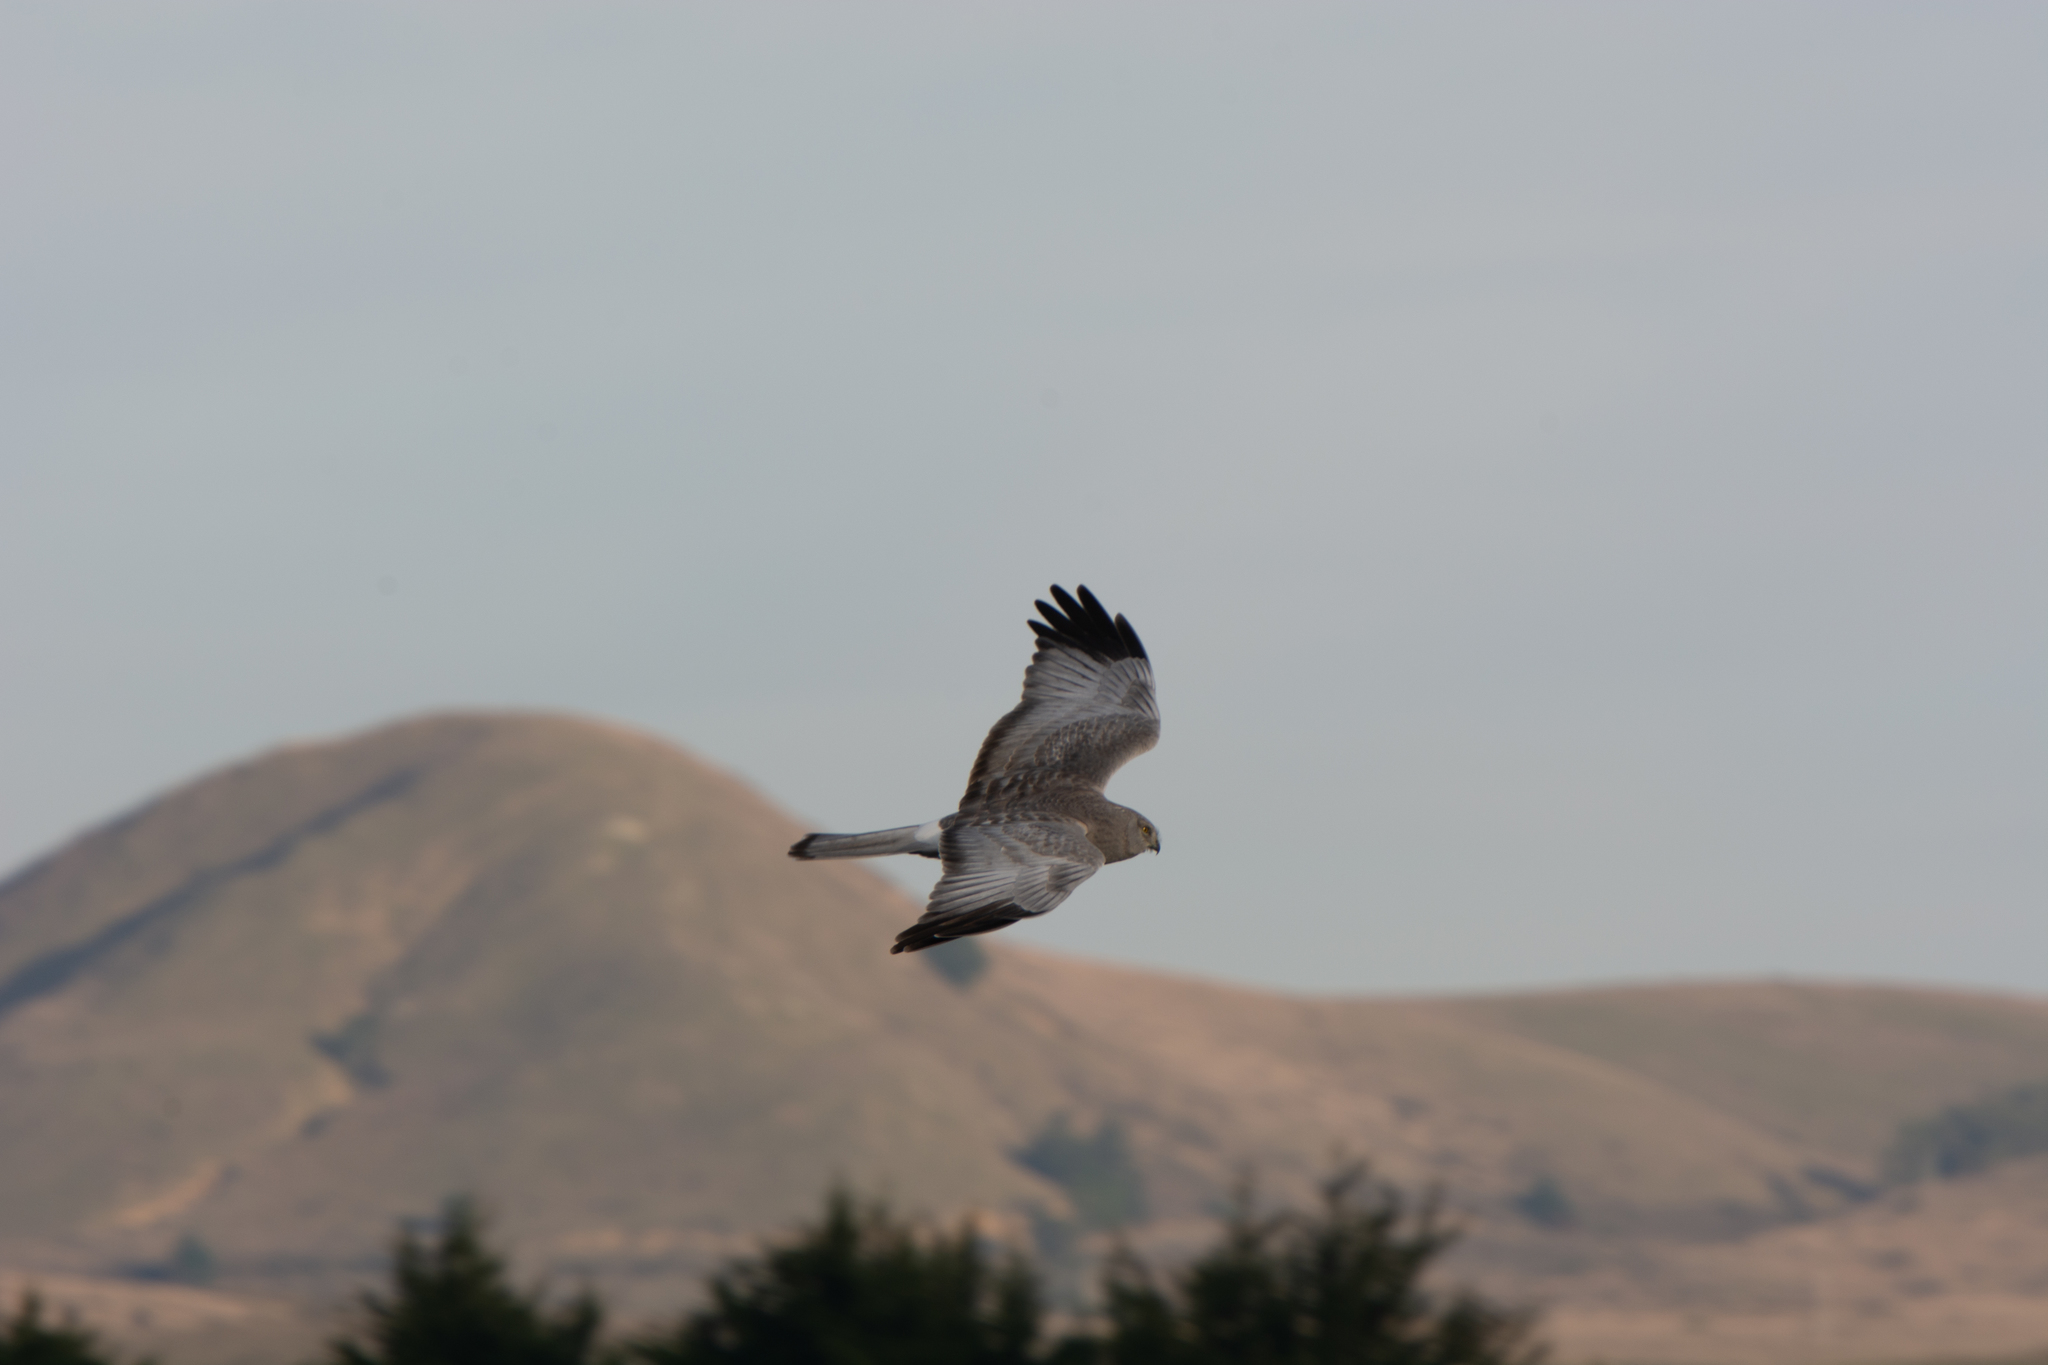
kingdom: Animalia
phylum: Chordata
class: Aves
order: Accipitriformes
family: Accipitridae
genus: Circus
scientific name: Circus cyaneus
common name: Hen harrier
